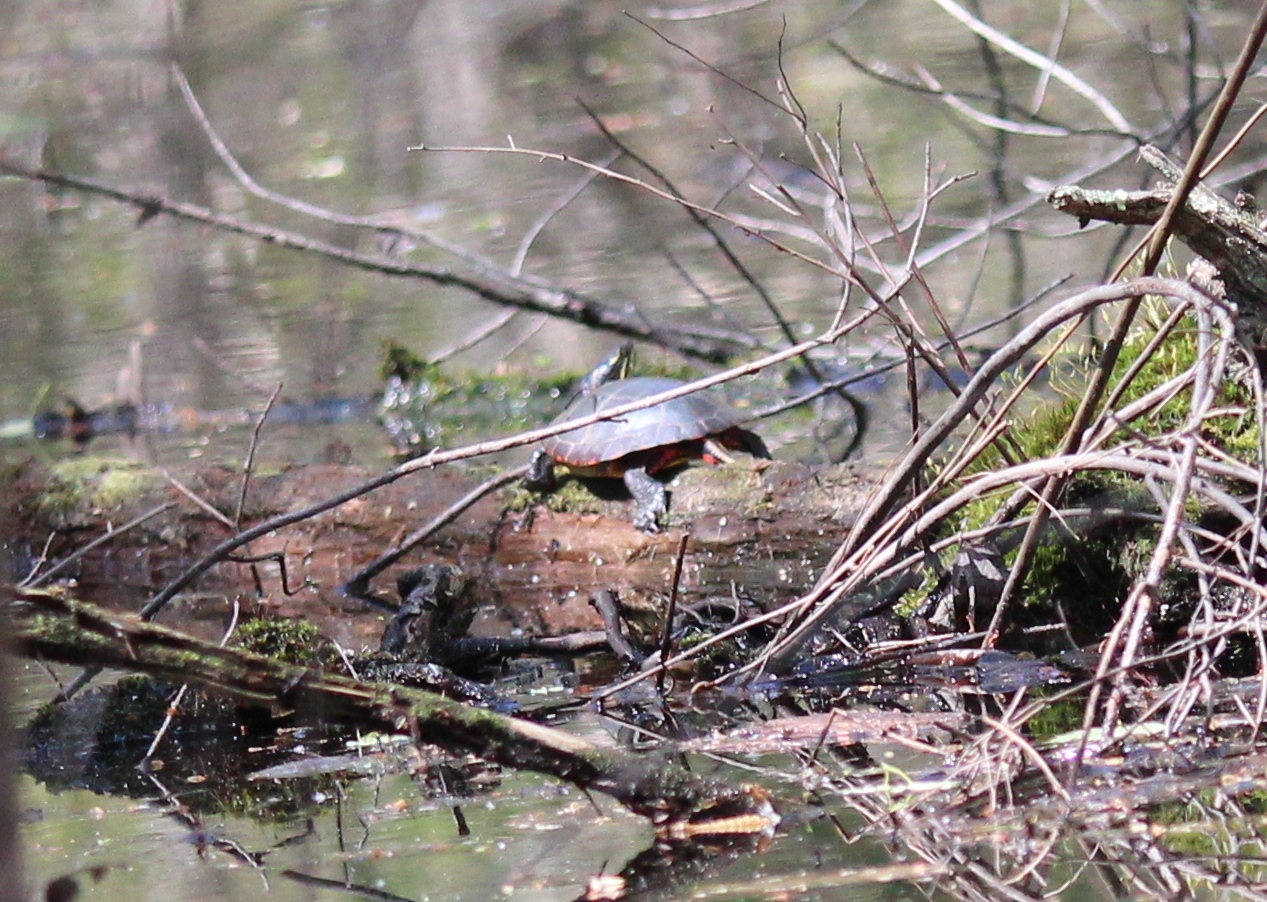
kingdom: Animalia
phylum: Chordata
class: Testudines
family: Emydidae
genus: Chrysemys
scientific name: Chrysemys picta
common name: Painted turtle
